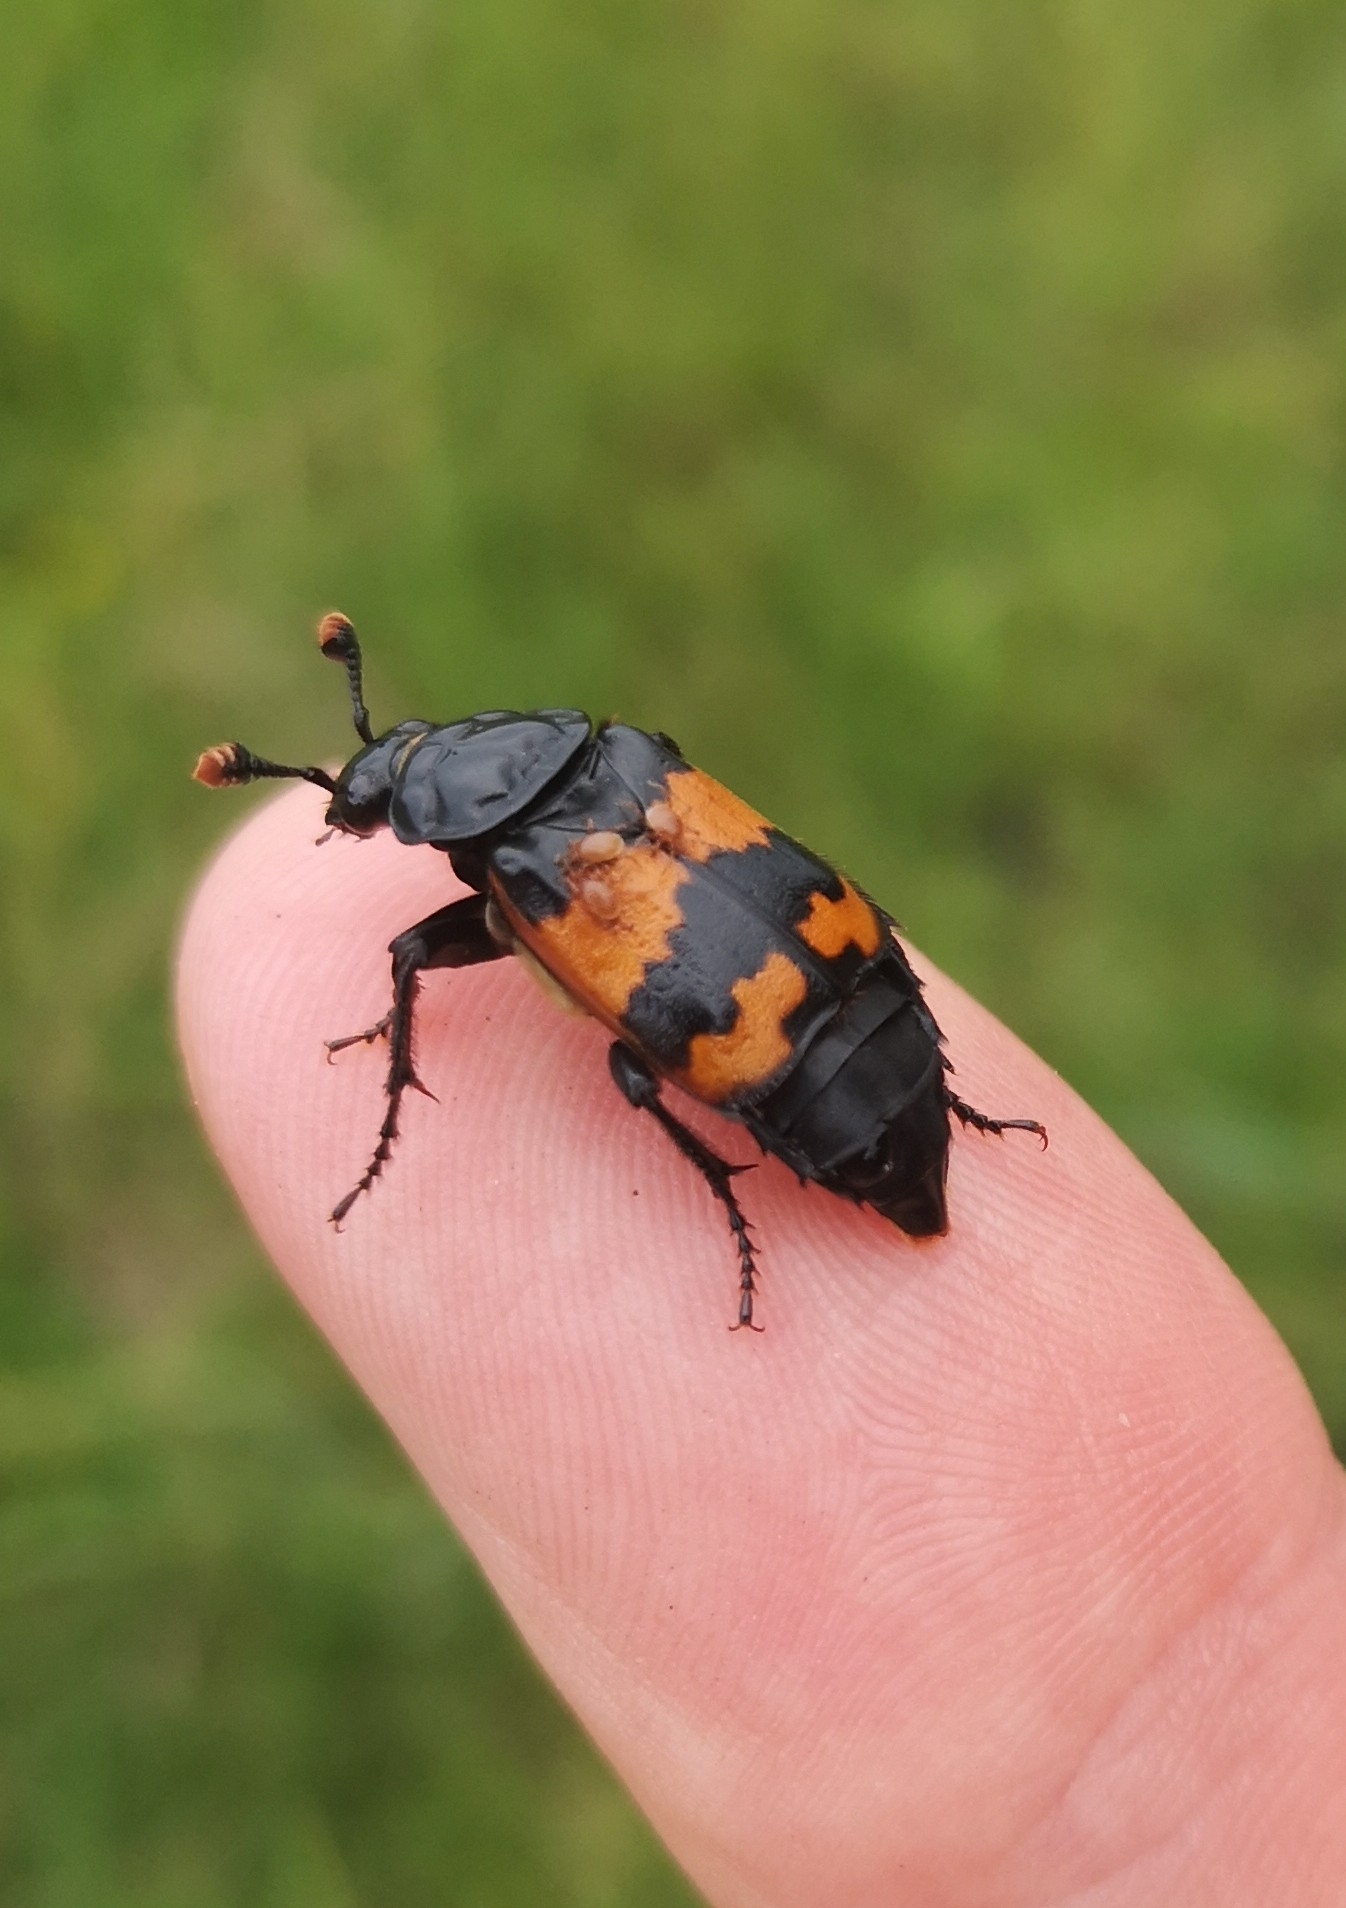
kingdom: Animalia
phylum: Arthropoda
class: Insecta
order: Coleoptera
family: Staphylinidae
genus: Nicrophorus
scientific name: Nicrophorus investigator
